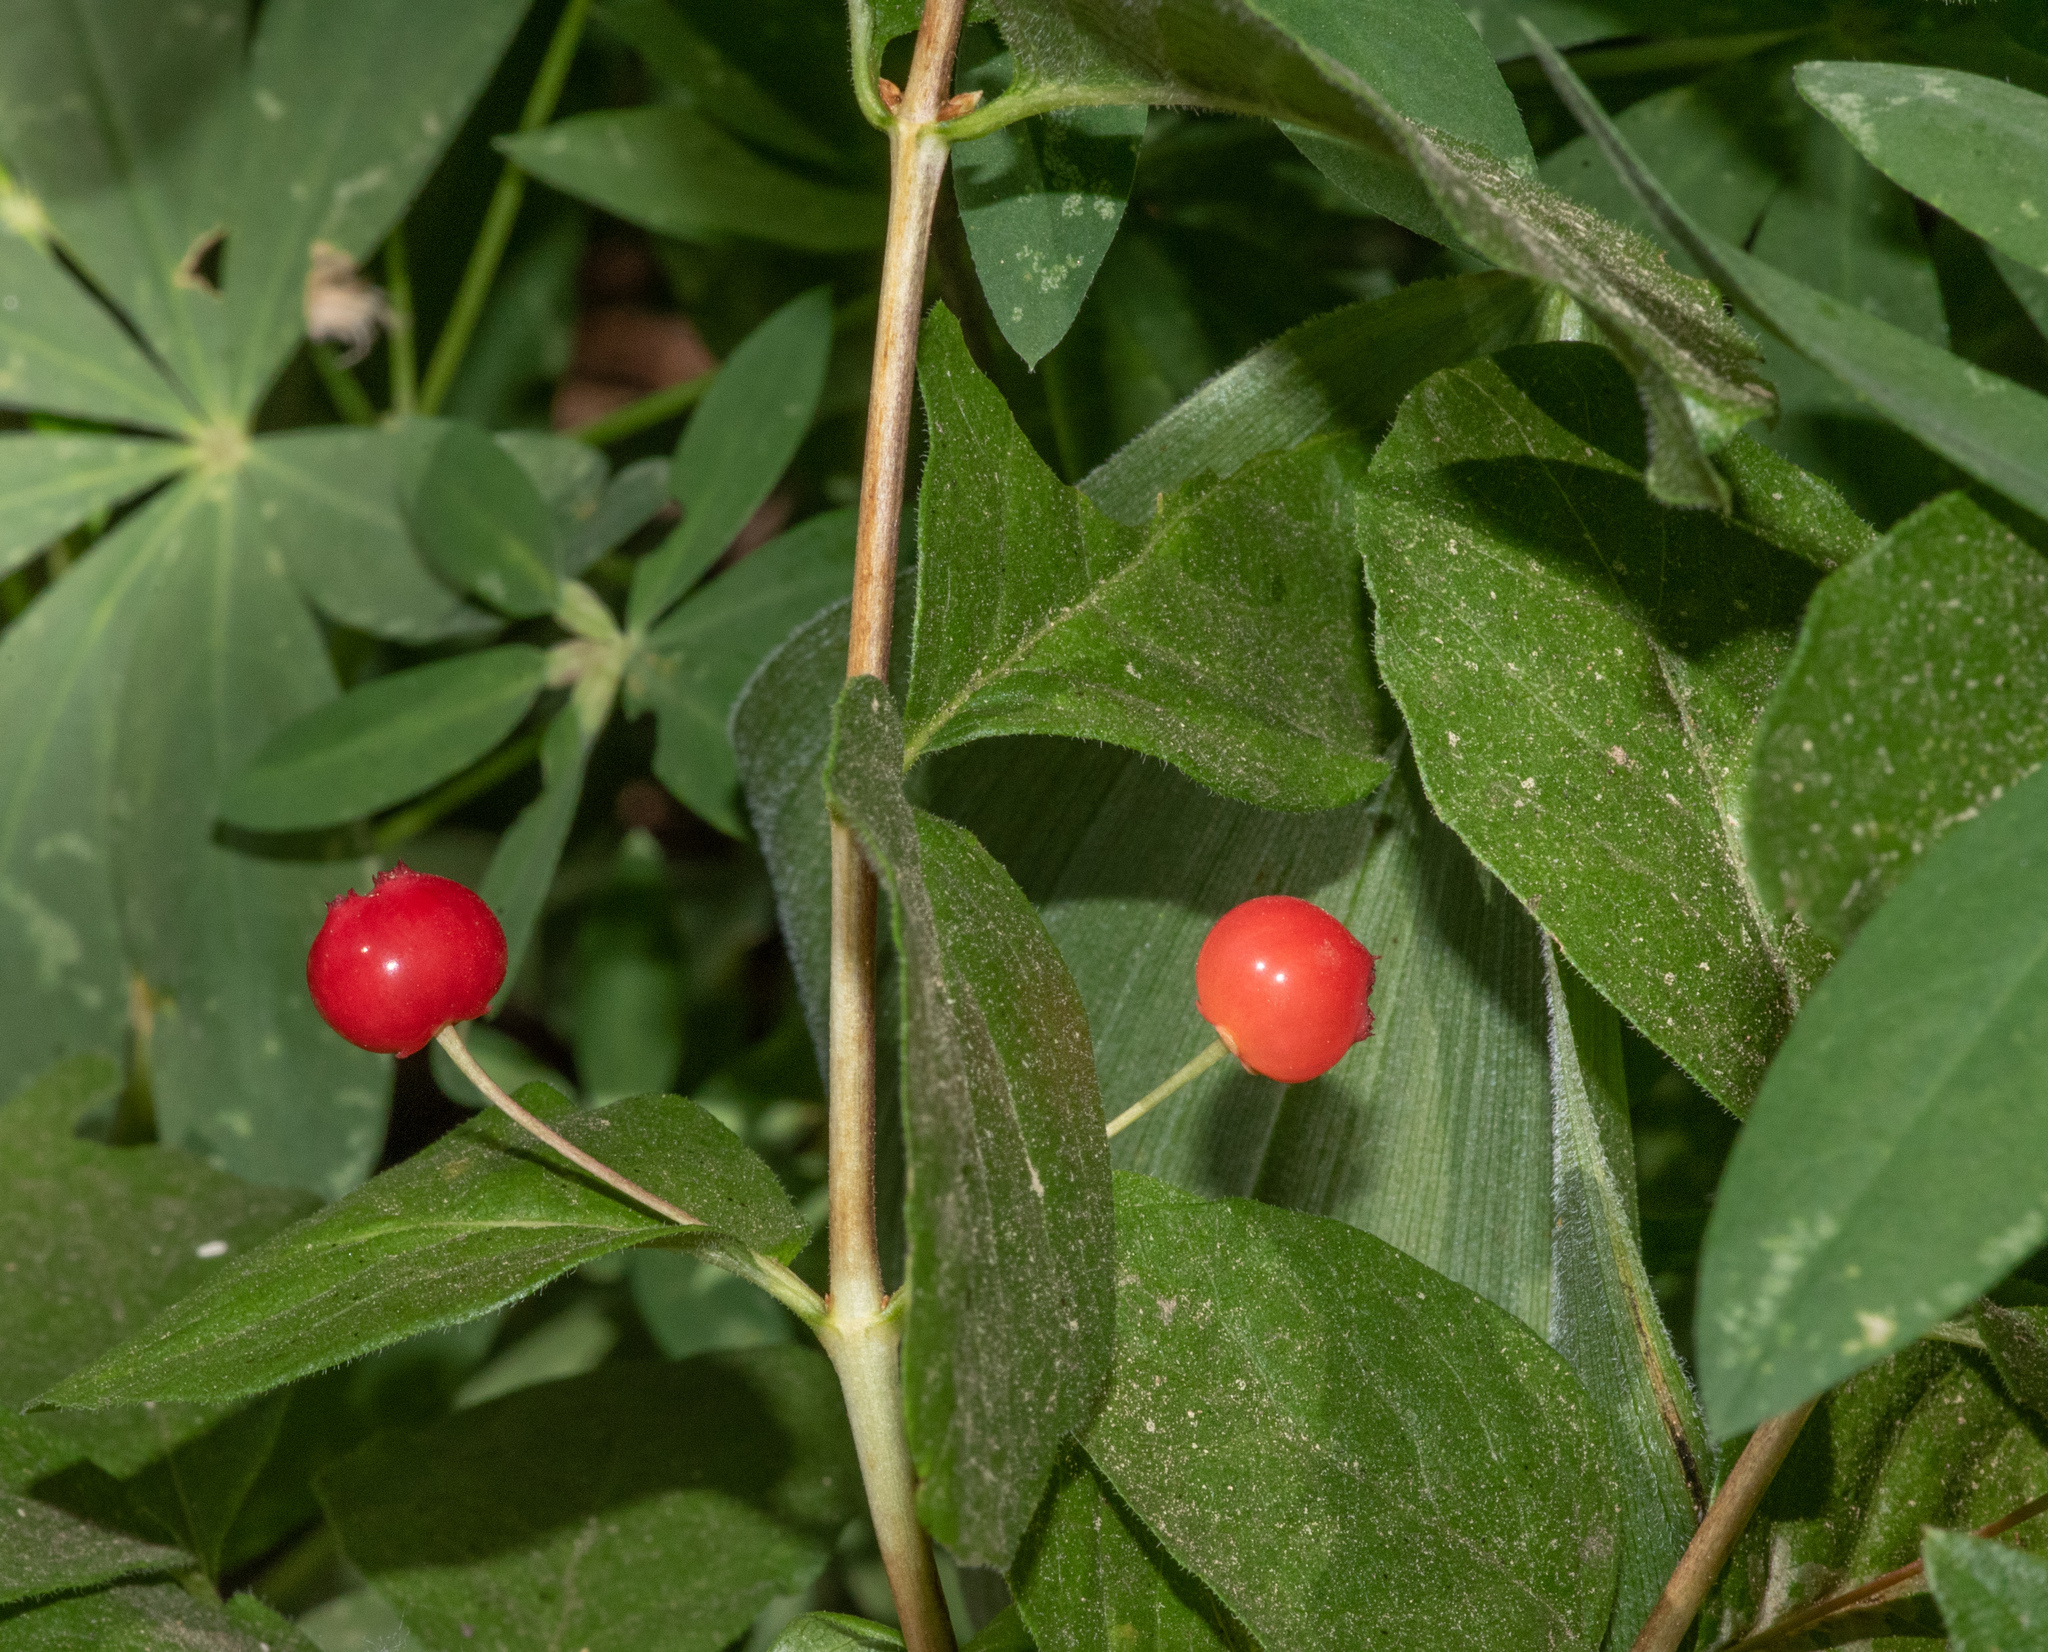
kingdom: Plantae
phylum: Tracheophyta
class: Magnoliopsida
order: Dipsacales
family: Caprifoliaceae
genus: Lonicera
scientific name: Lonicera conjugialis
